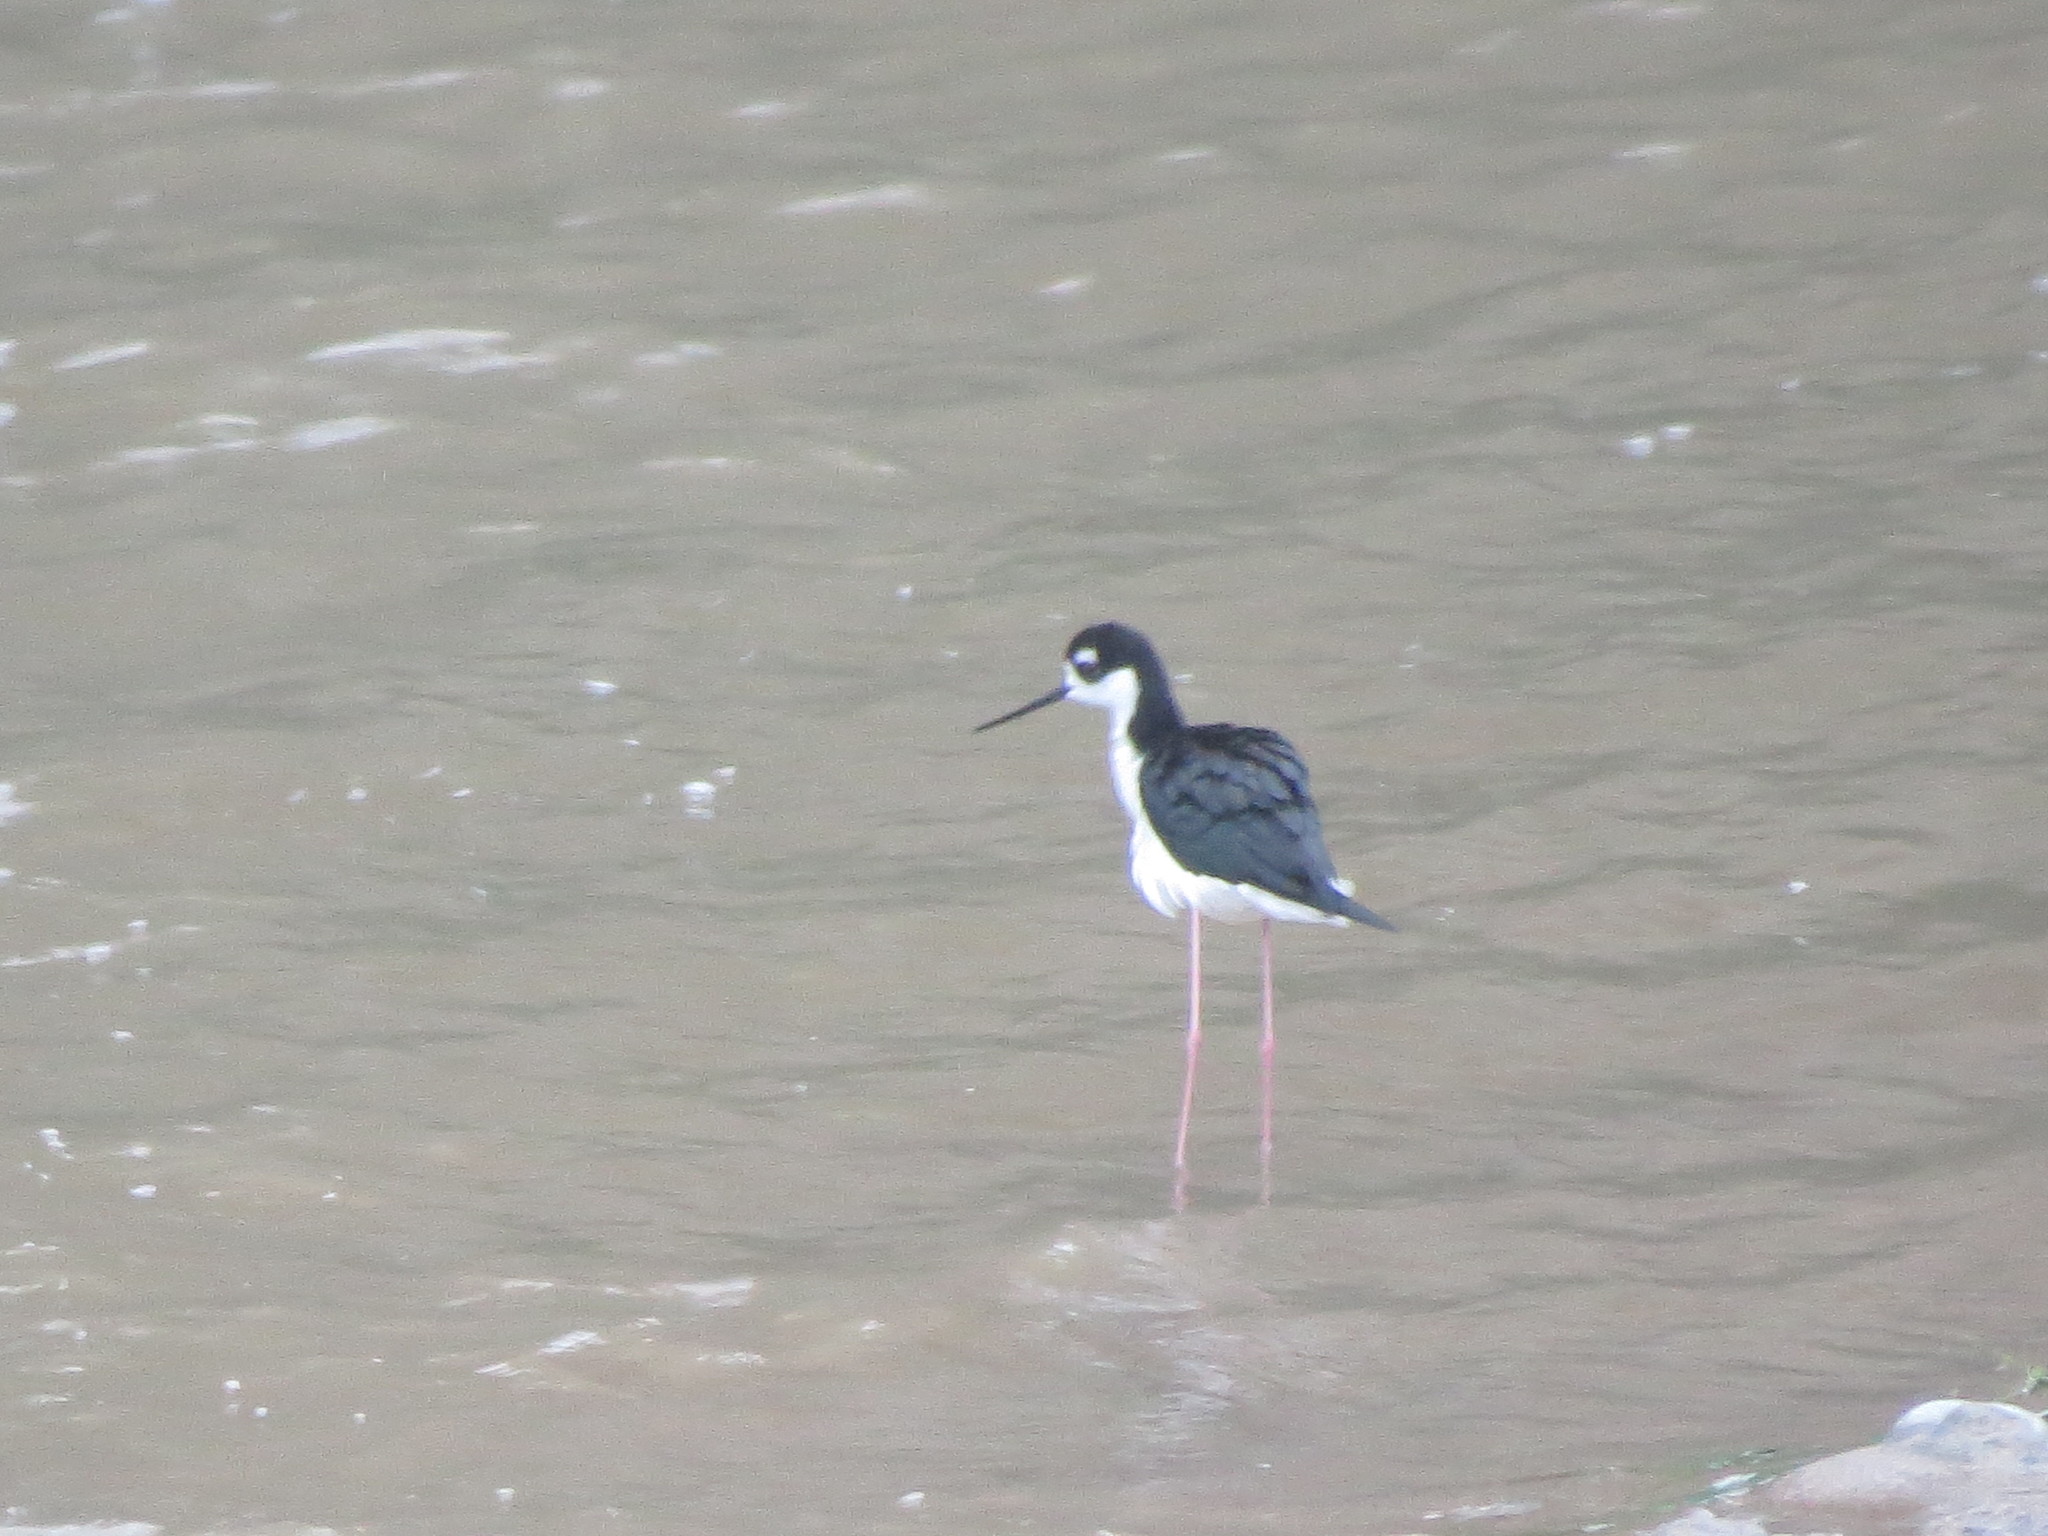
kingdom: Animalia
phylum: Chordata
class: Aves
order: Charadriiformes
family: Recurvirostridae
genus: Himantopus
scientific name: Himantopus mexicanus
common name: Black-necked stilt
